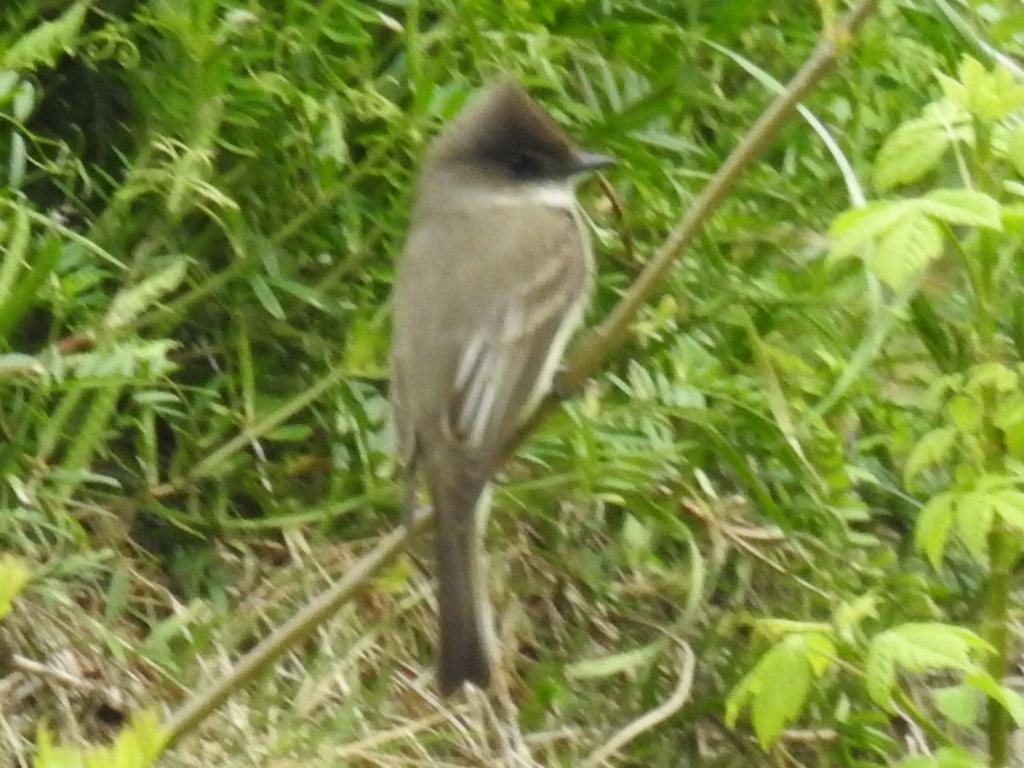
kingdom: Animalia
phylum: Chordata
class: Aves
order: Passeriformes
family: Tyrannidae
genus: Sayornis
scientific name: Sayornis phoebe
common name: Eastern phoebe
